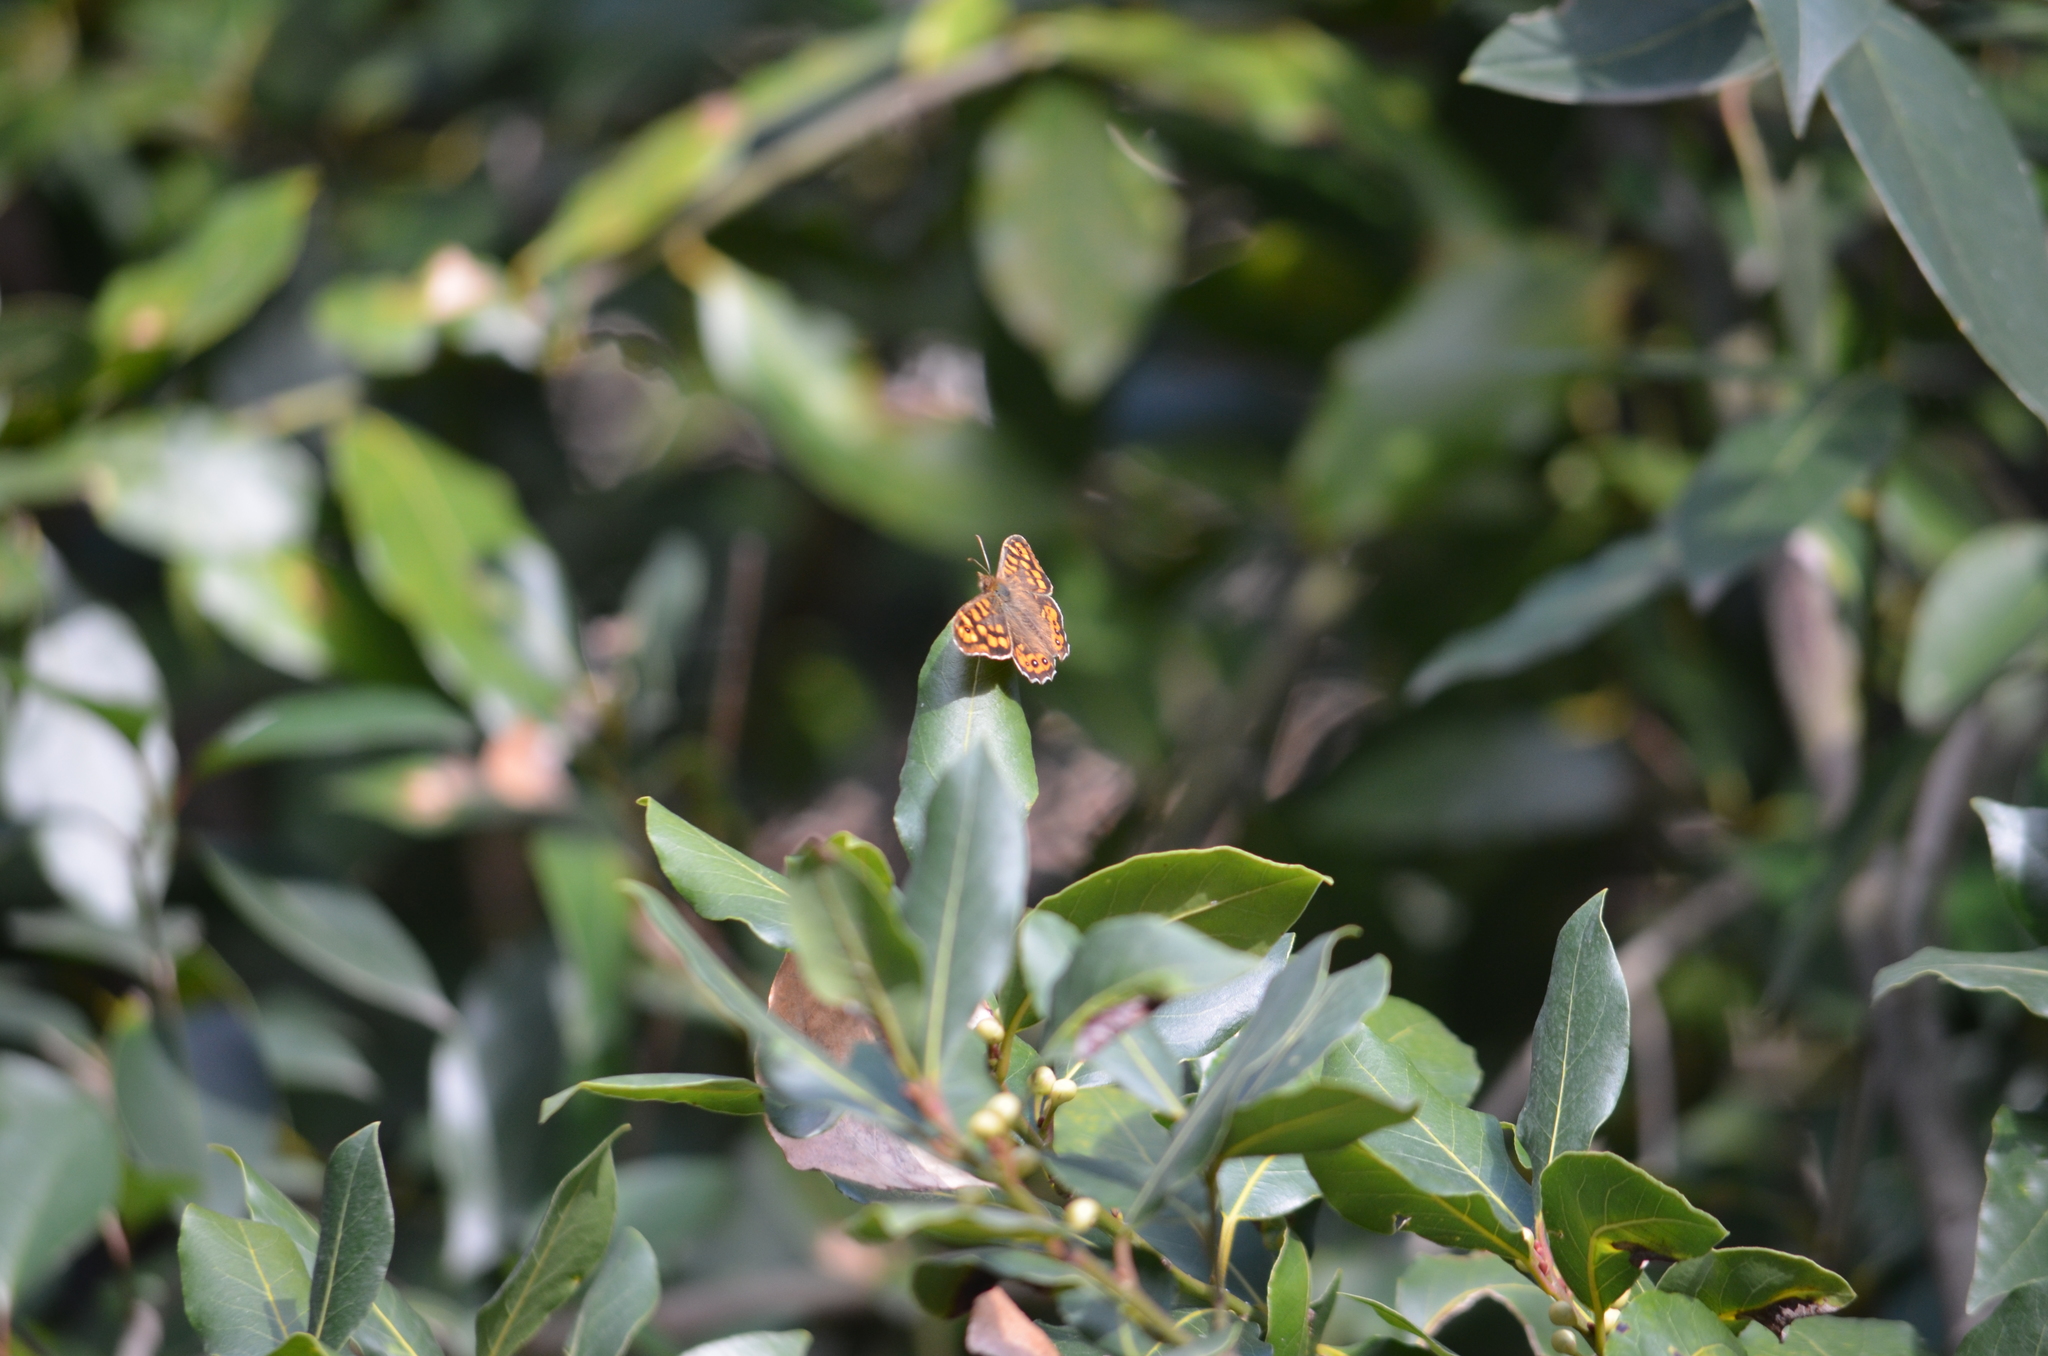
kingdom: Animalia
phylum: Arthropoda
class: Insecta
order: Lepidoptera
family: Nymphalidae
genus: Pararge
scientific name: Pararge aegeria
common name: Speckled wood
